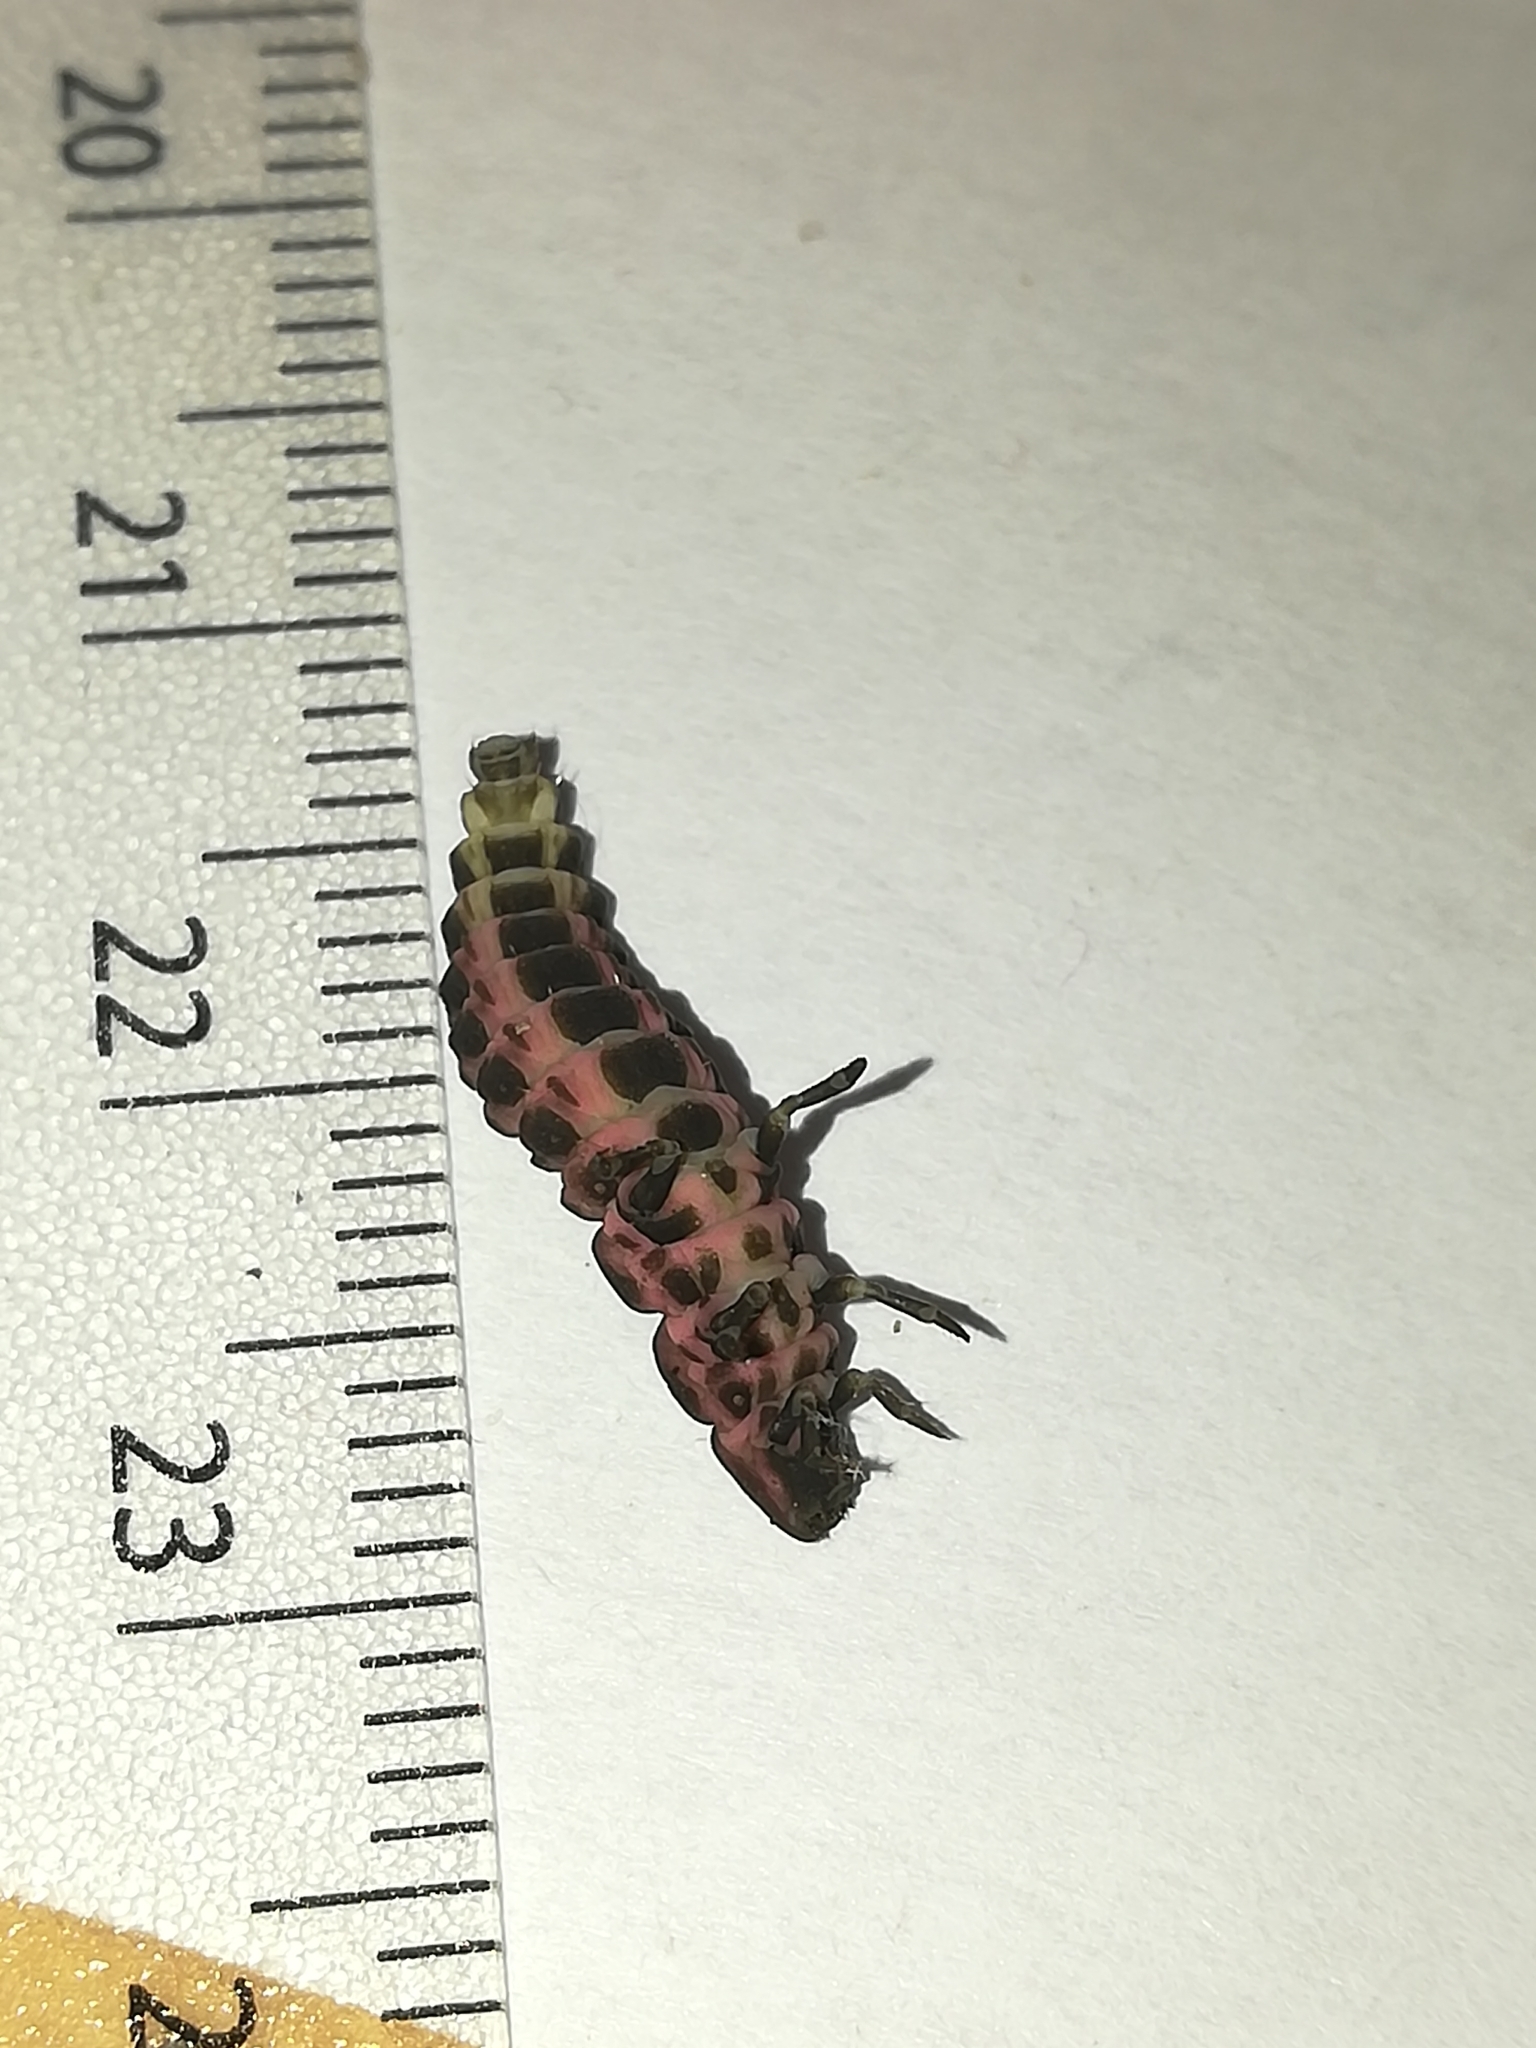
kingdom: Animalia
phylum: Arthropoda
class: Insecta
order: Coleoptera
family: Lampyridae
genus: Nyctophila
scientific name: Nyctophila reichii
